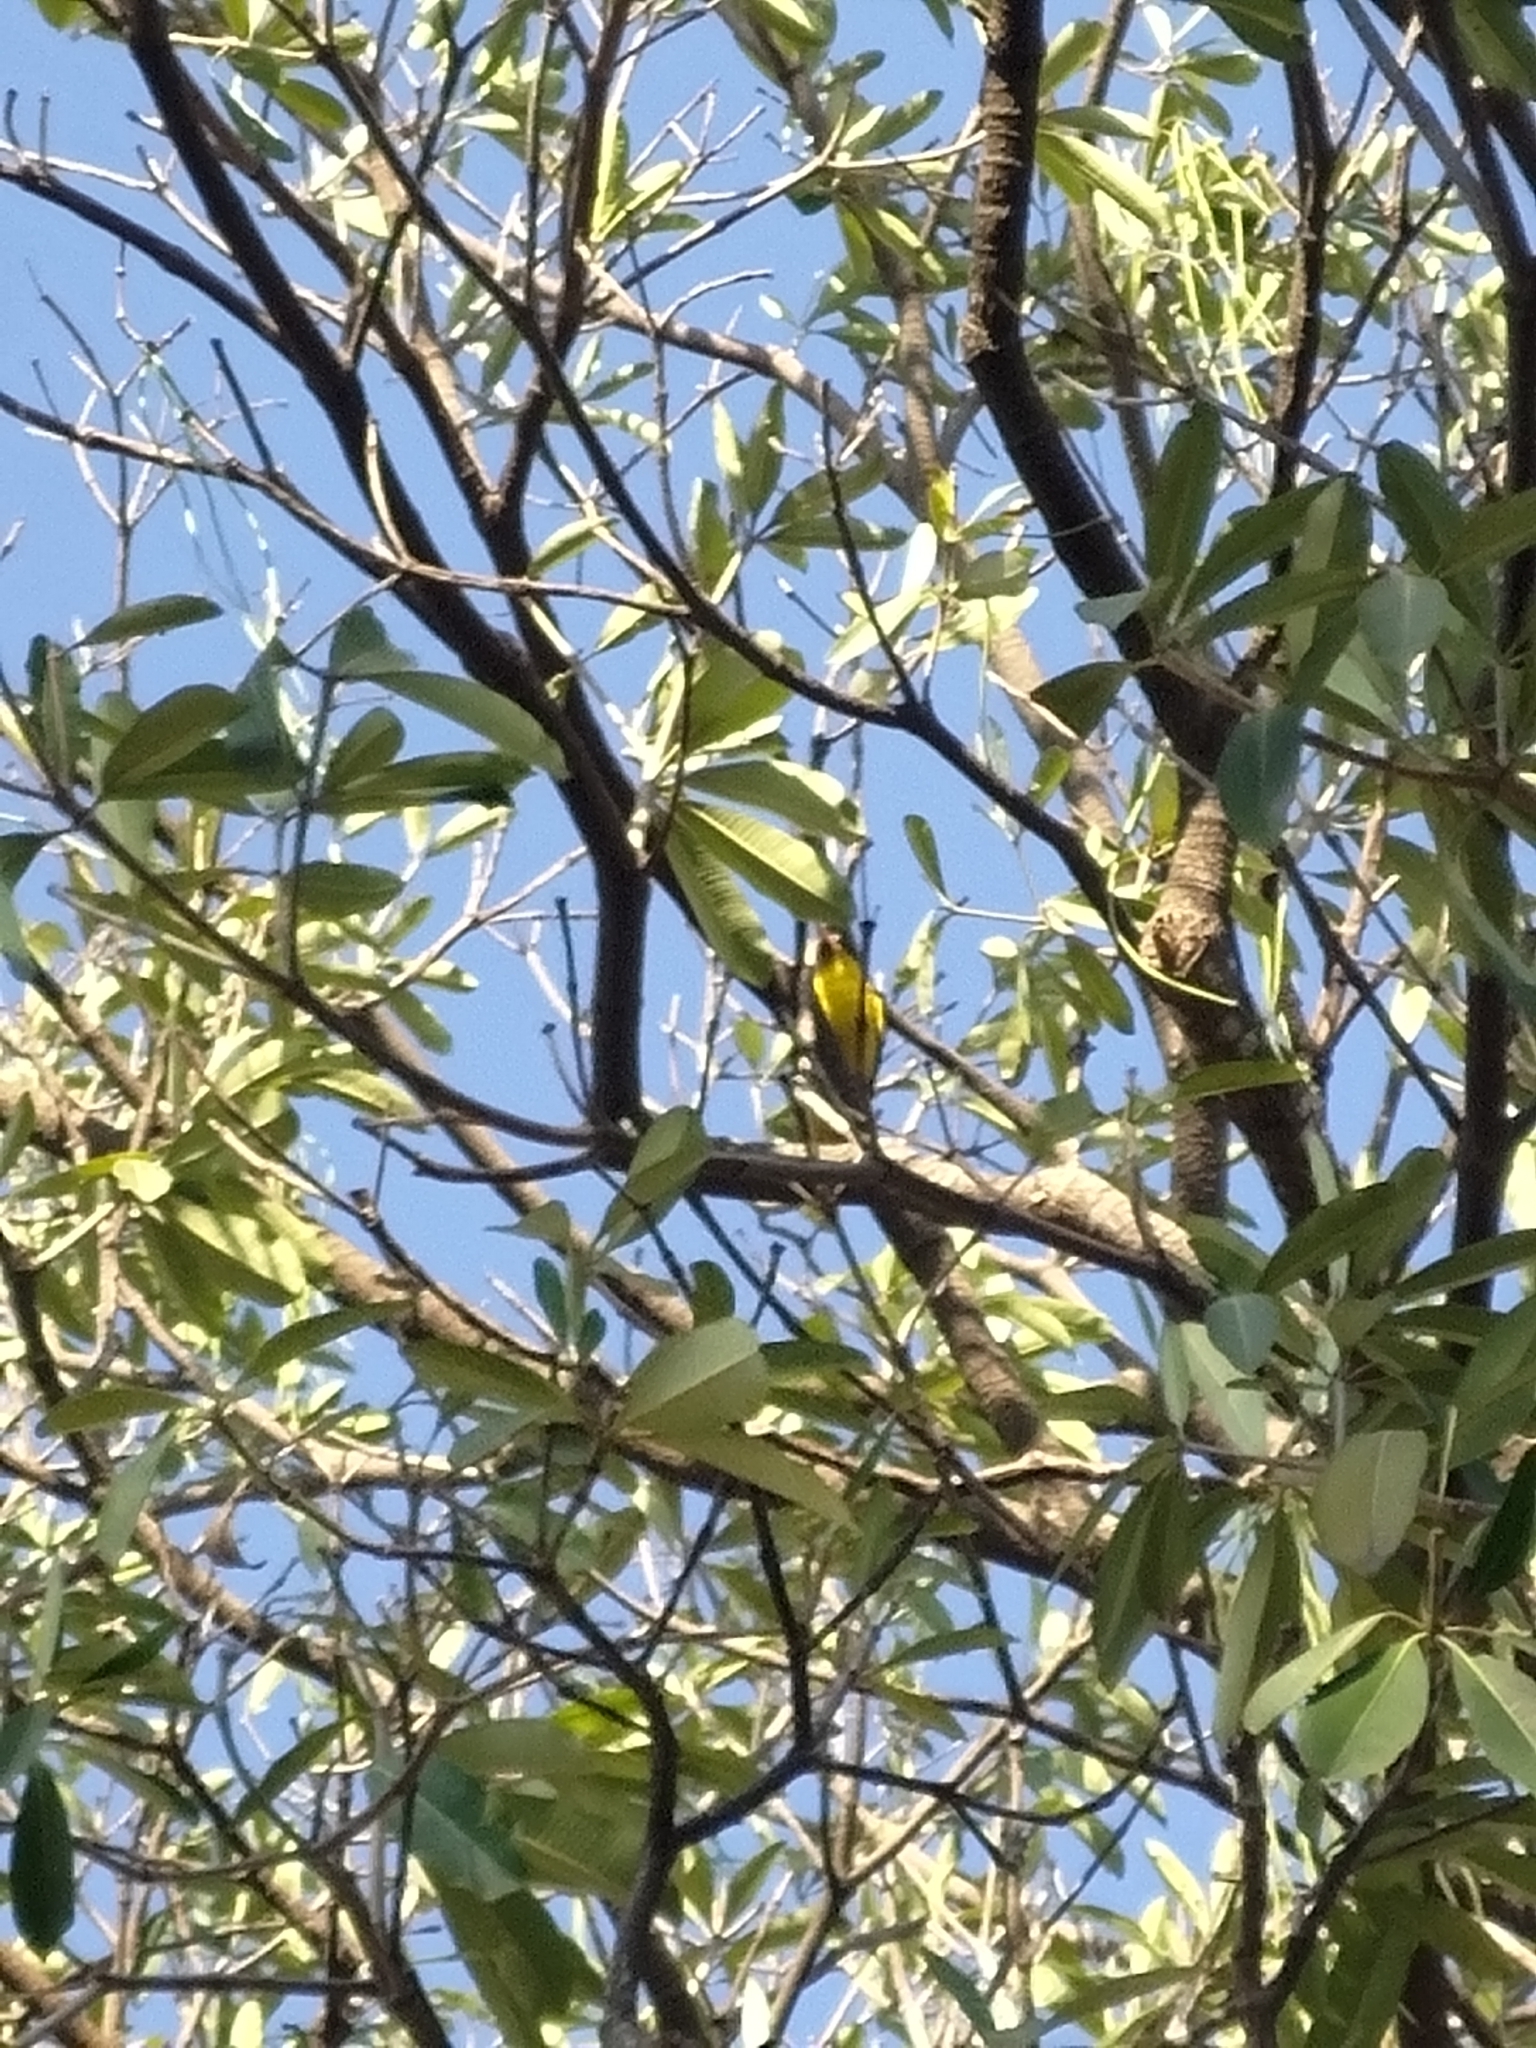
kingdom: Animalia
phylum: Chordata
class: Aves
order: Passeriformes
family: Oriolidae
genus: Oriolus
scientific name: Oriolus chinensis
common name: Black-naped oriole
